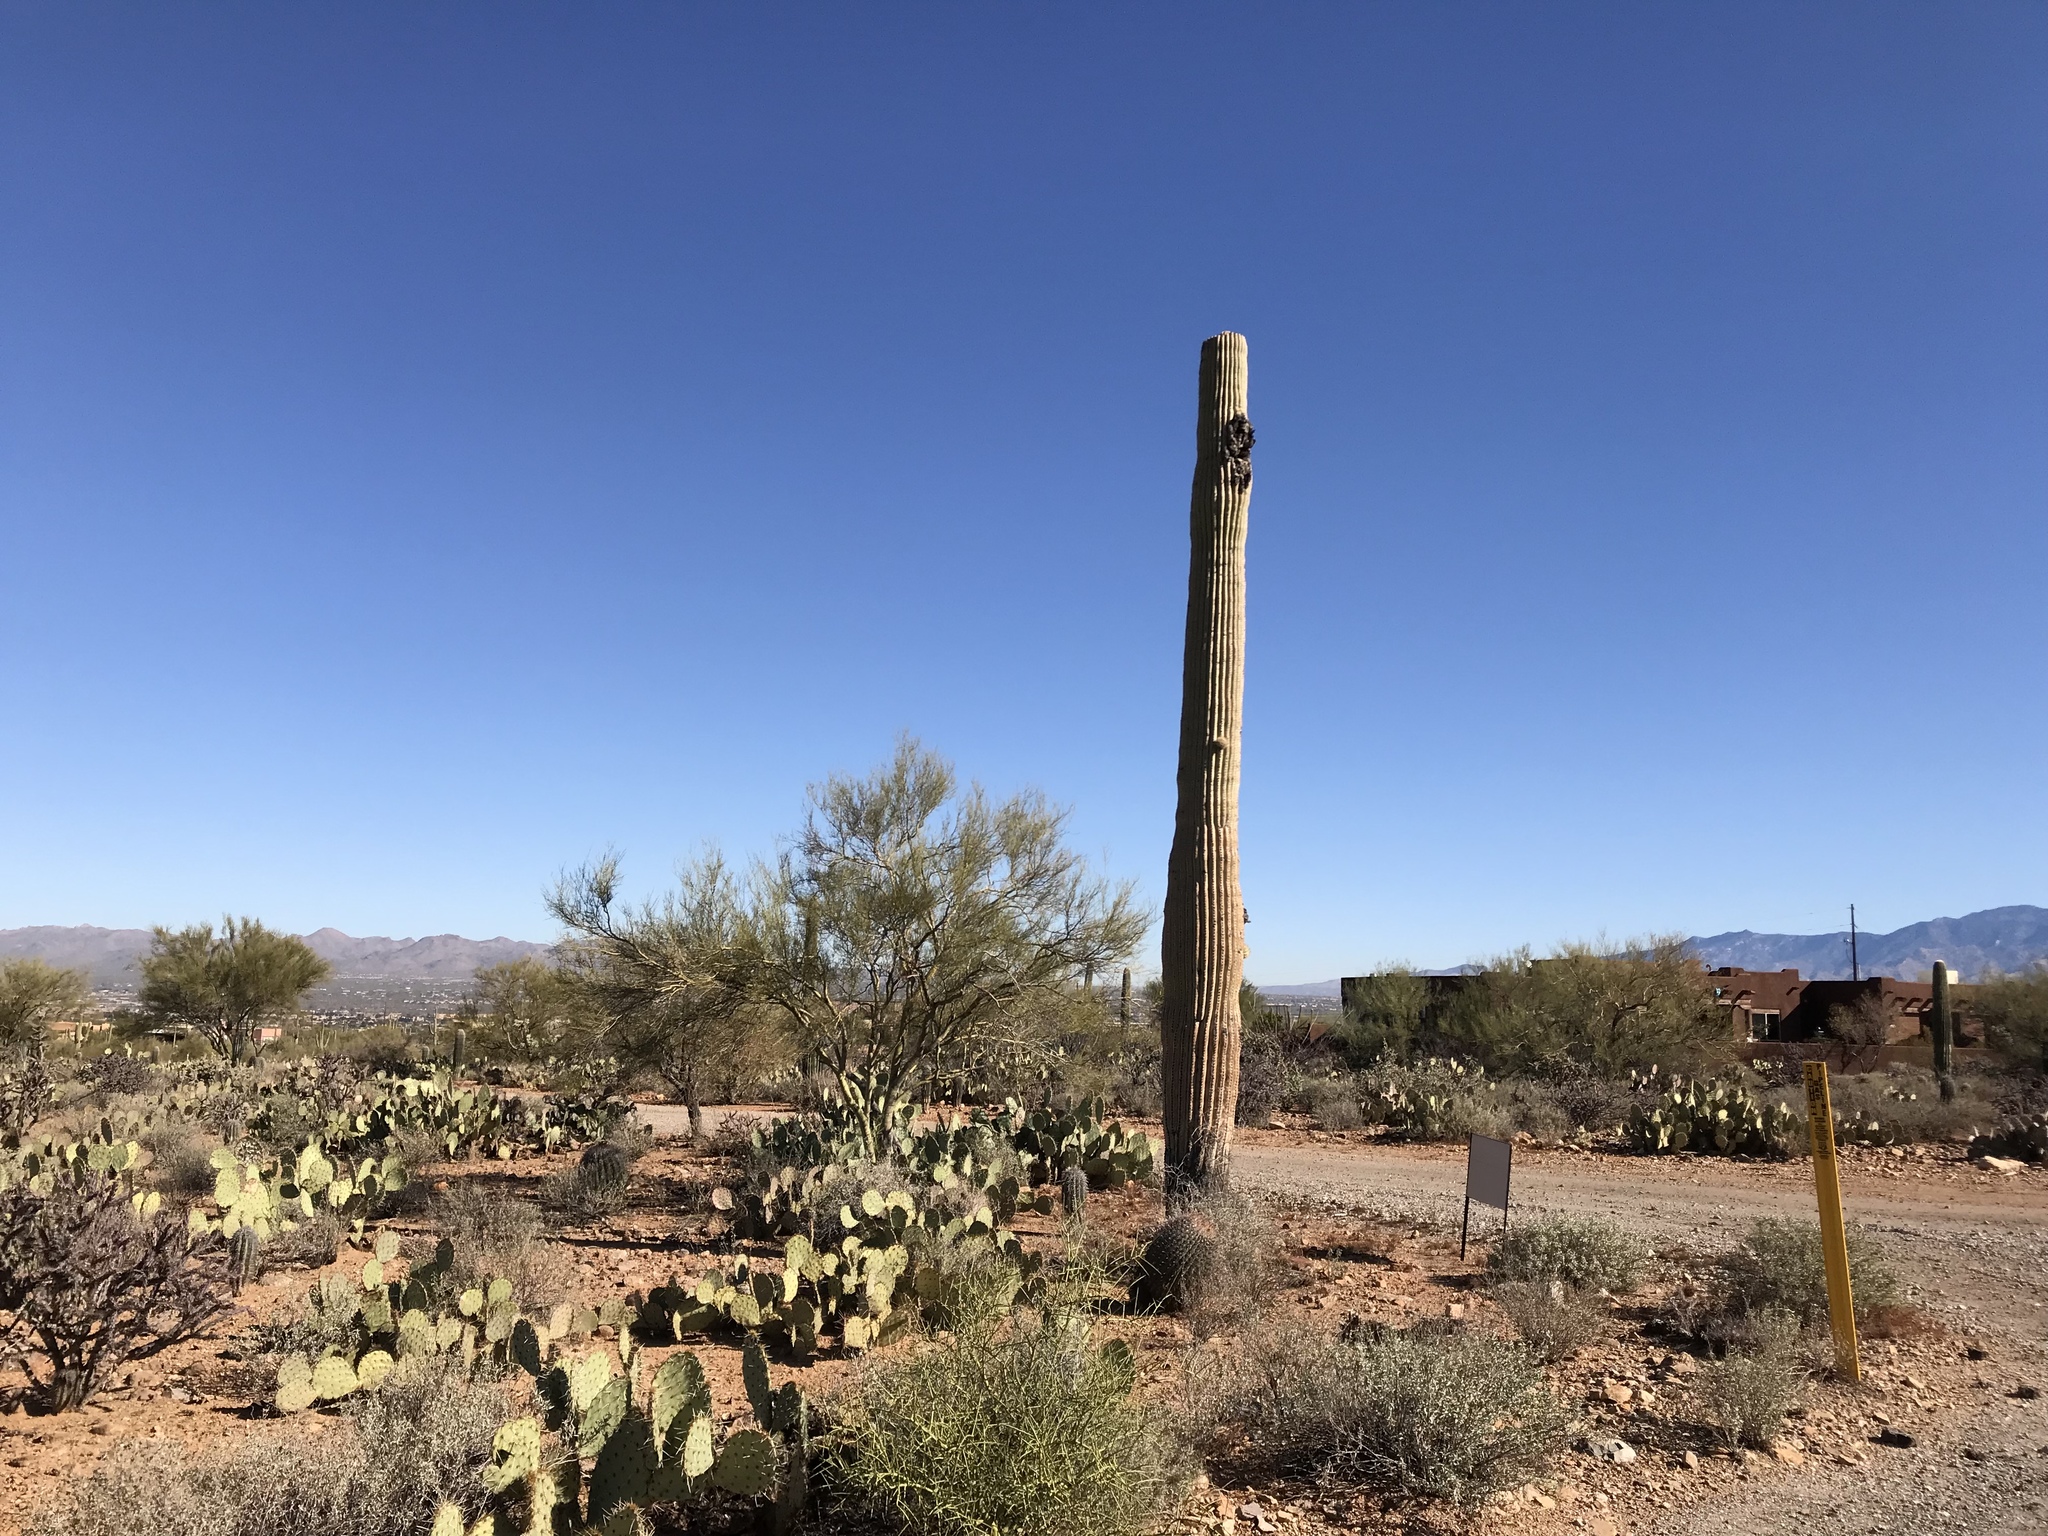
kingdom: Plantae
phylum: Tracheophyta
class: Magnoliopsida
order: Caryophyllales
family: Cactaceae
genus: Carnegiea
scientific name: Carnegiea gigantea
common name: Saguaro
